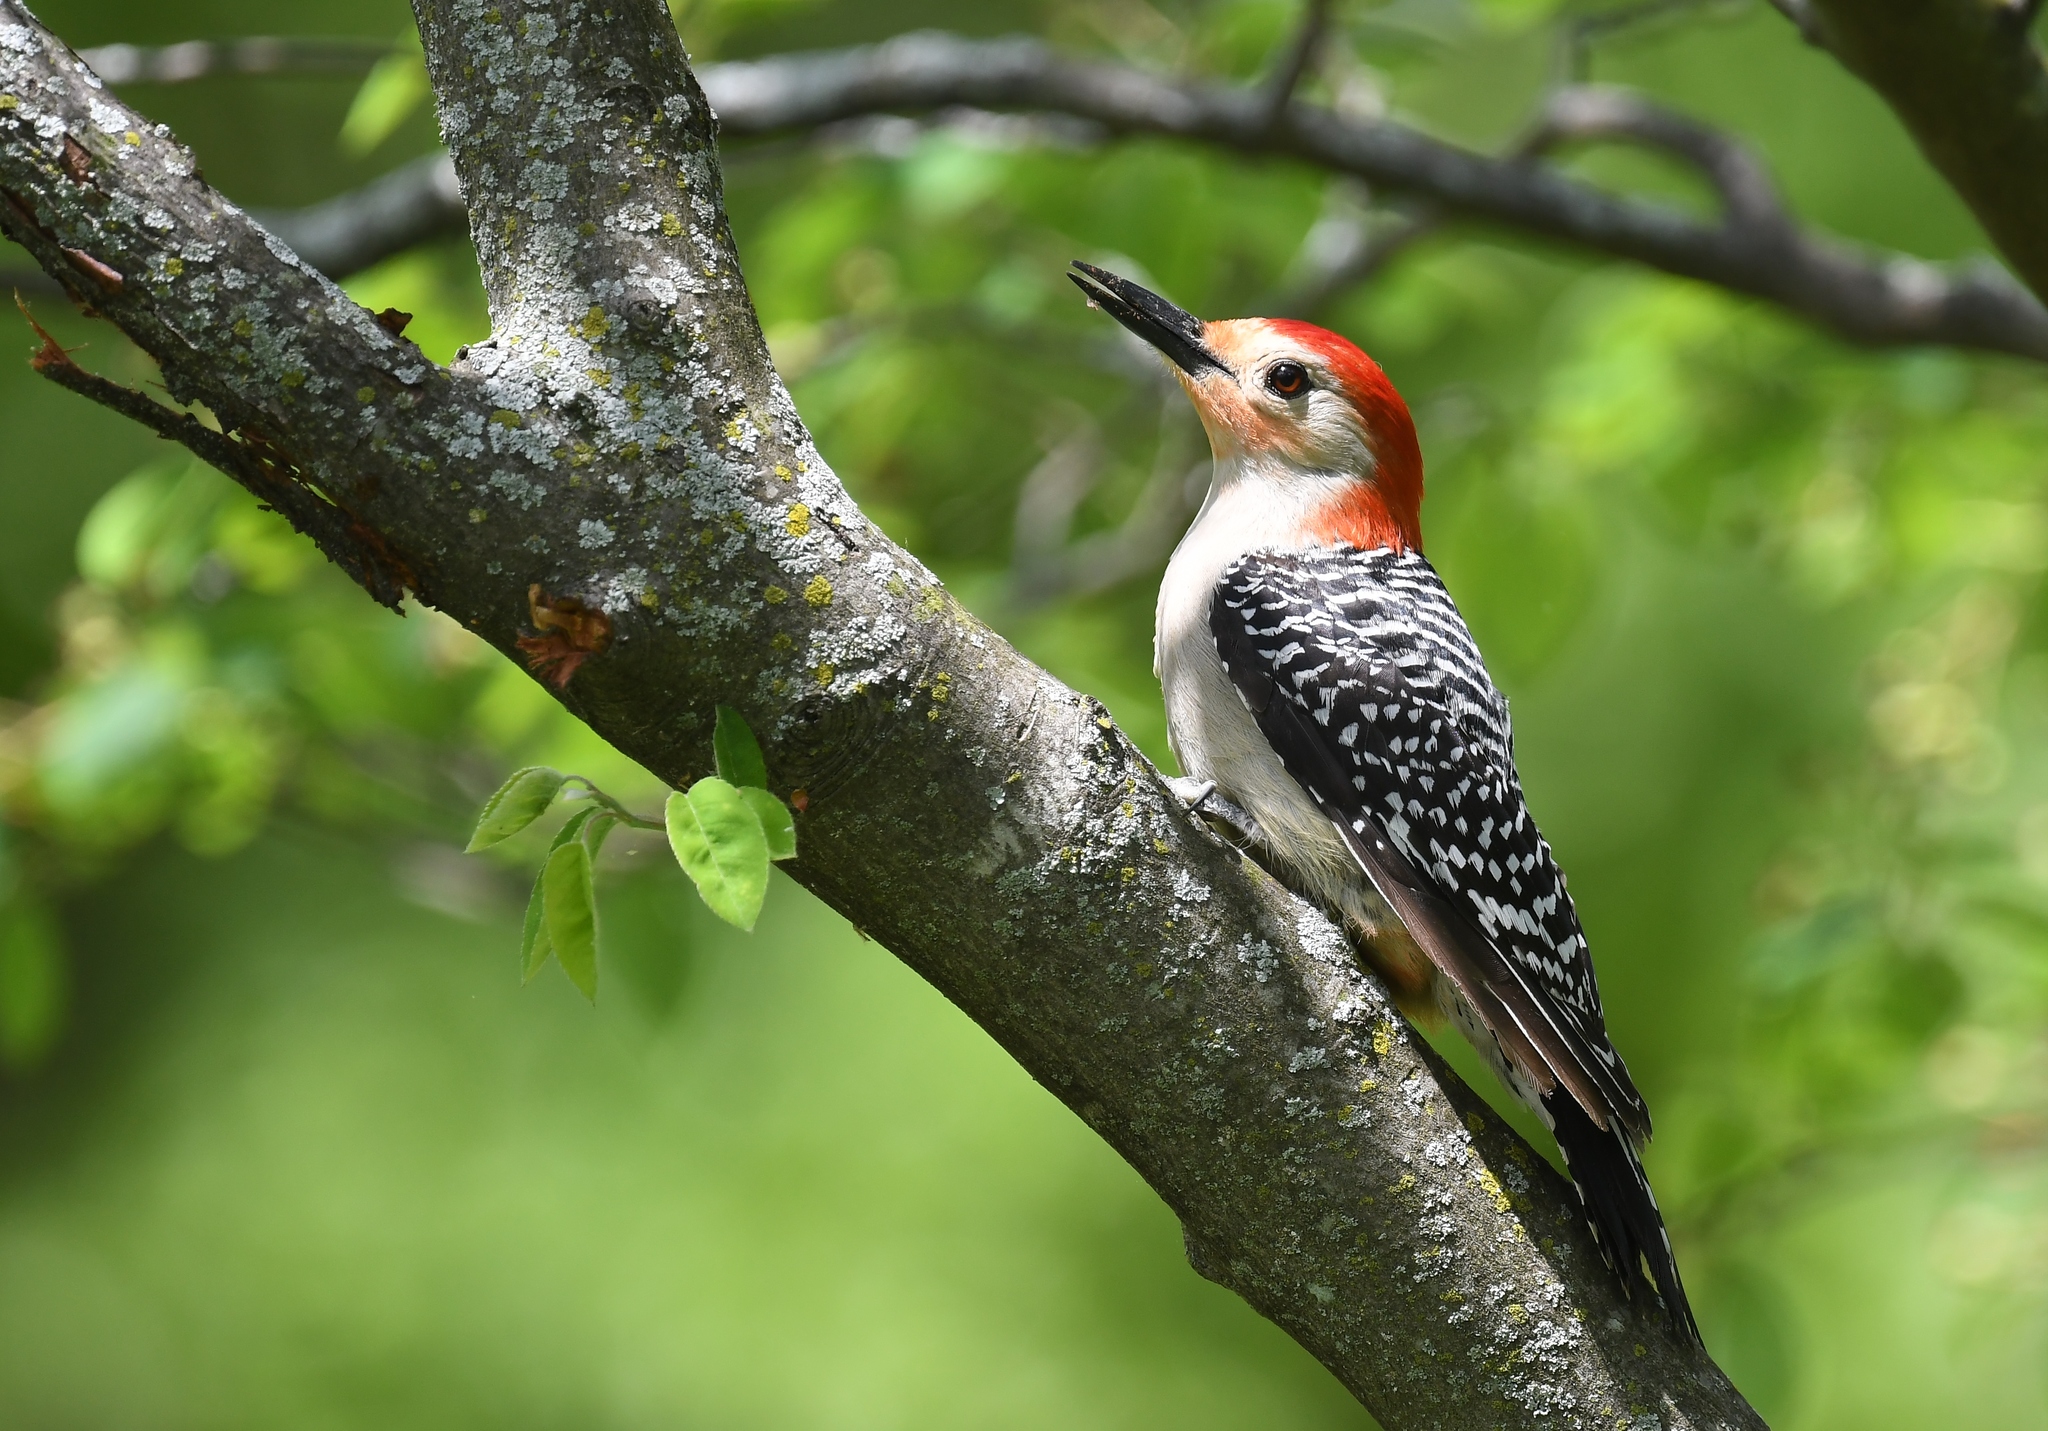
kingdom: Animalia
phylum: Chordata
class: Aves
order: Piciformes
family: Picidae
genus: Melanerpes
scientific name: Melanerpes carolinus
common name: Red-bellied woodpecker
